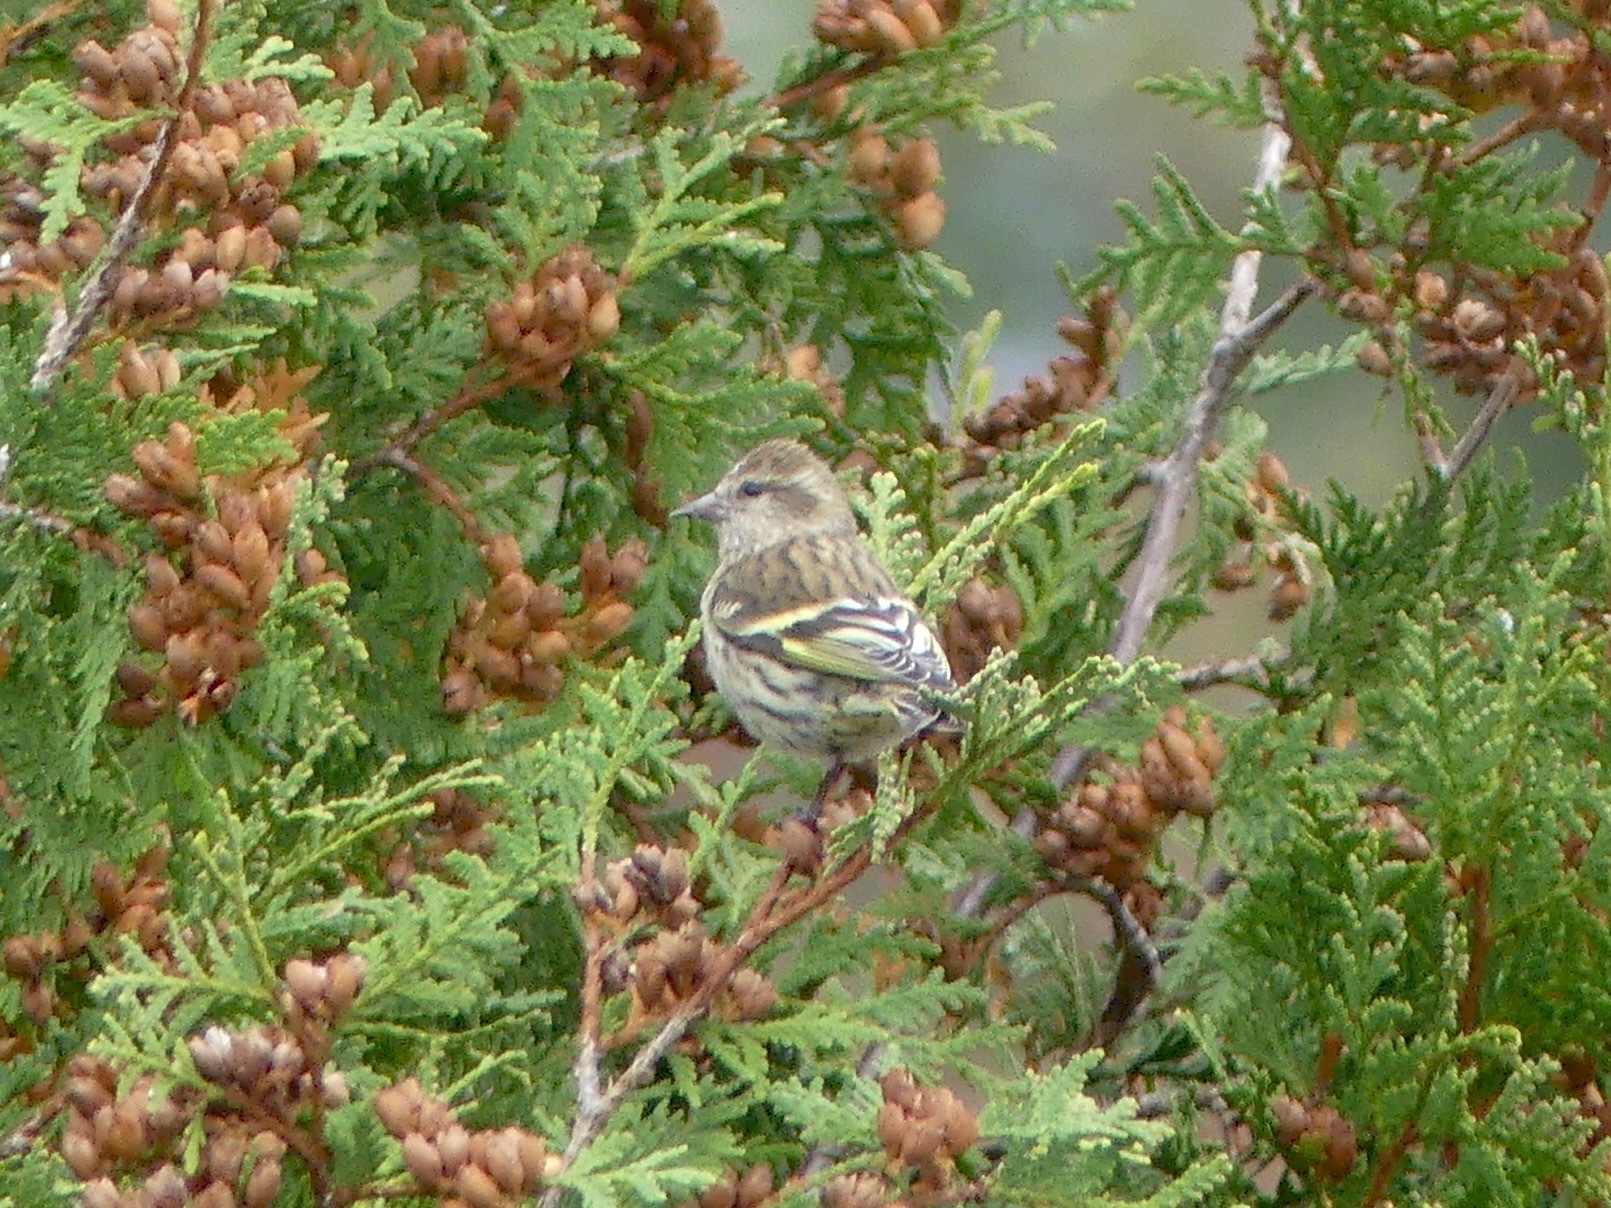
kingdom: Animalia
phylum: Chordata
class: Aves
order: Passeriformes
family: Fringillidae
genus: Spinus
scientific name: Spinus pinus
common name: Pine siskin
